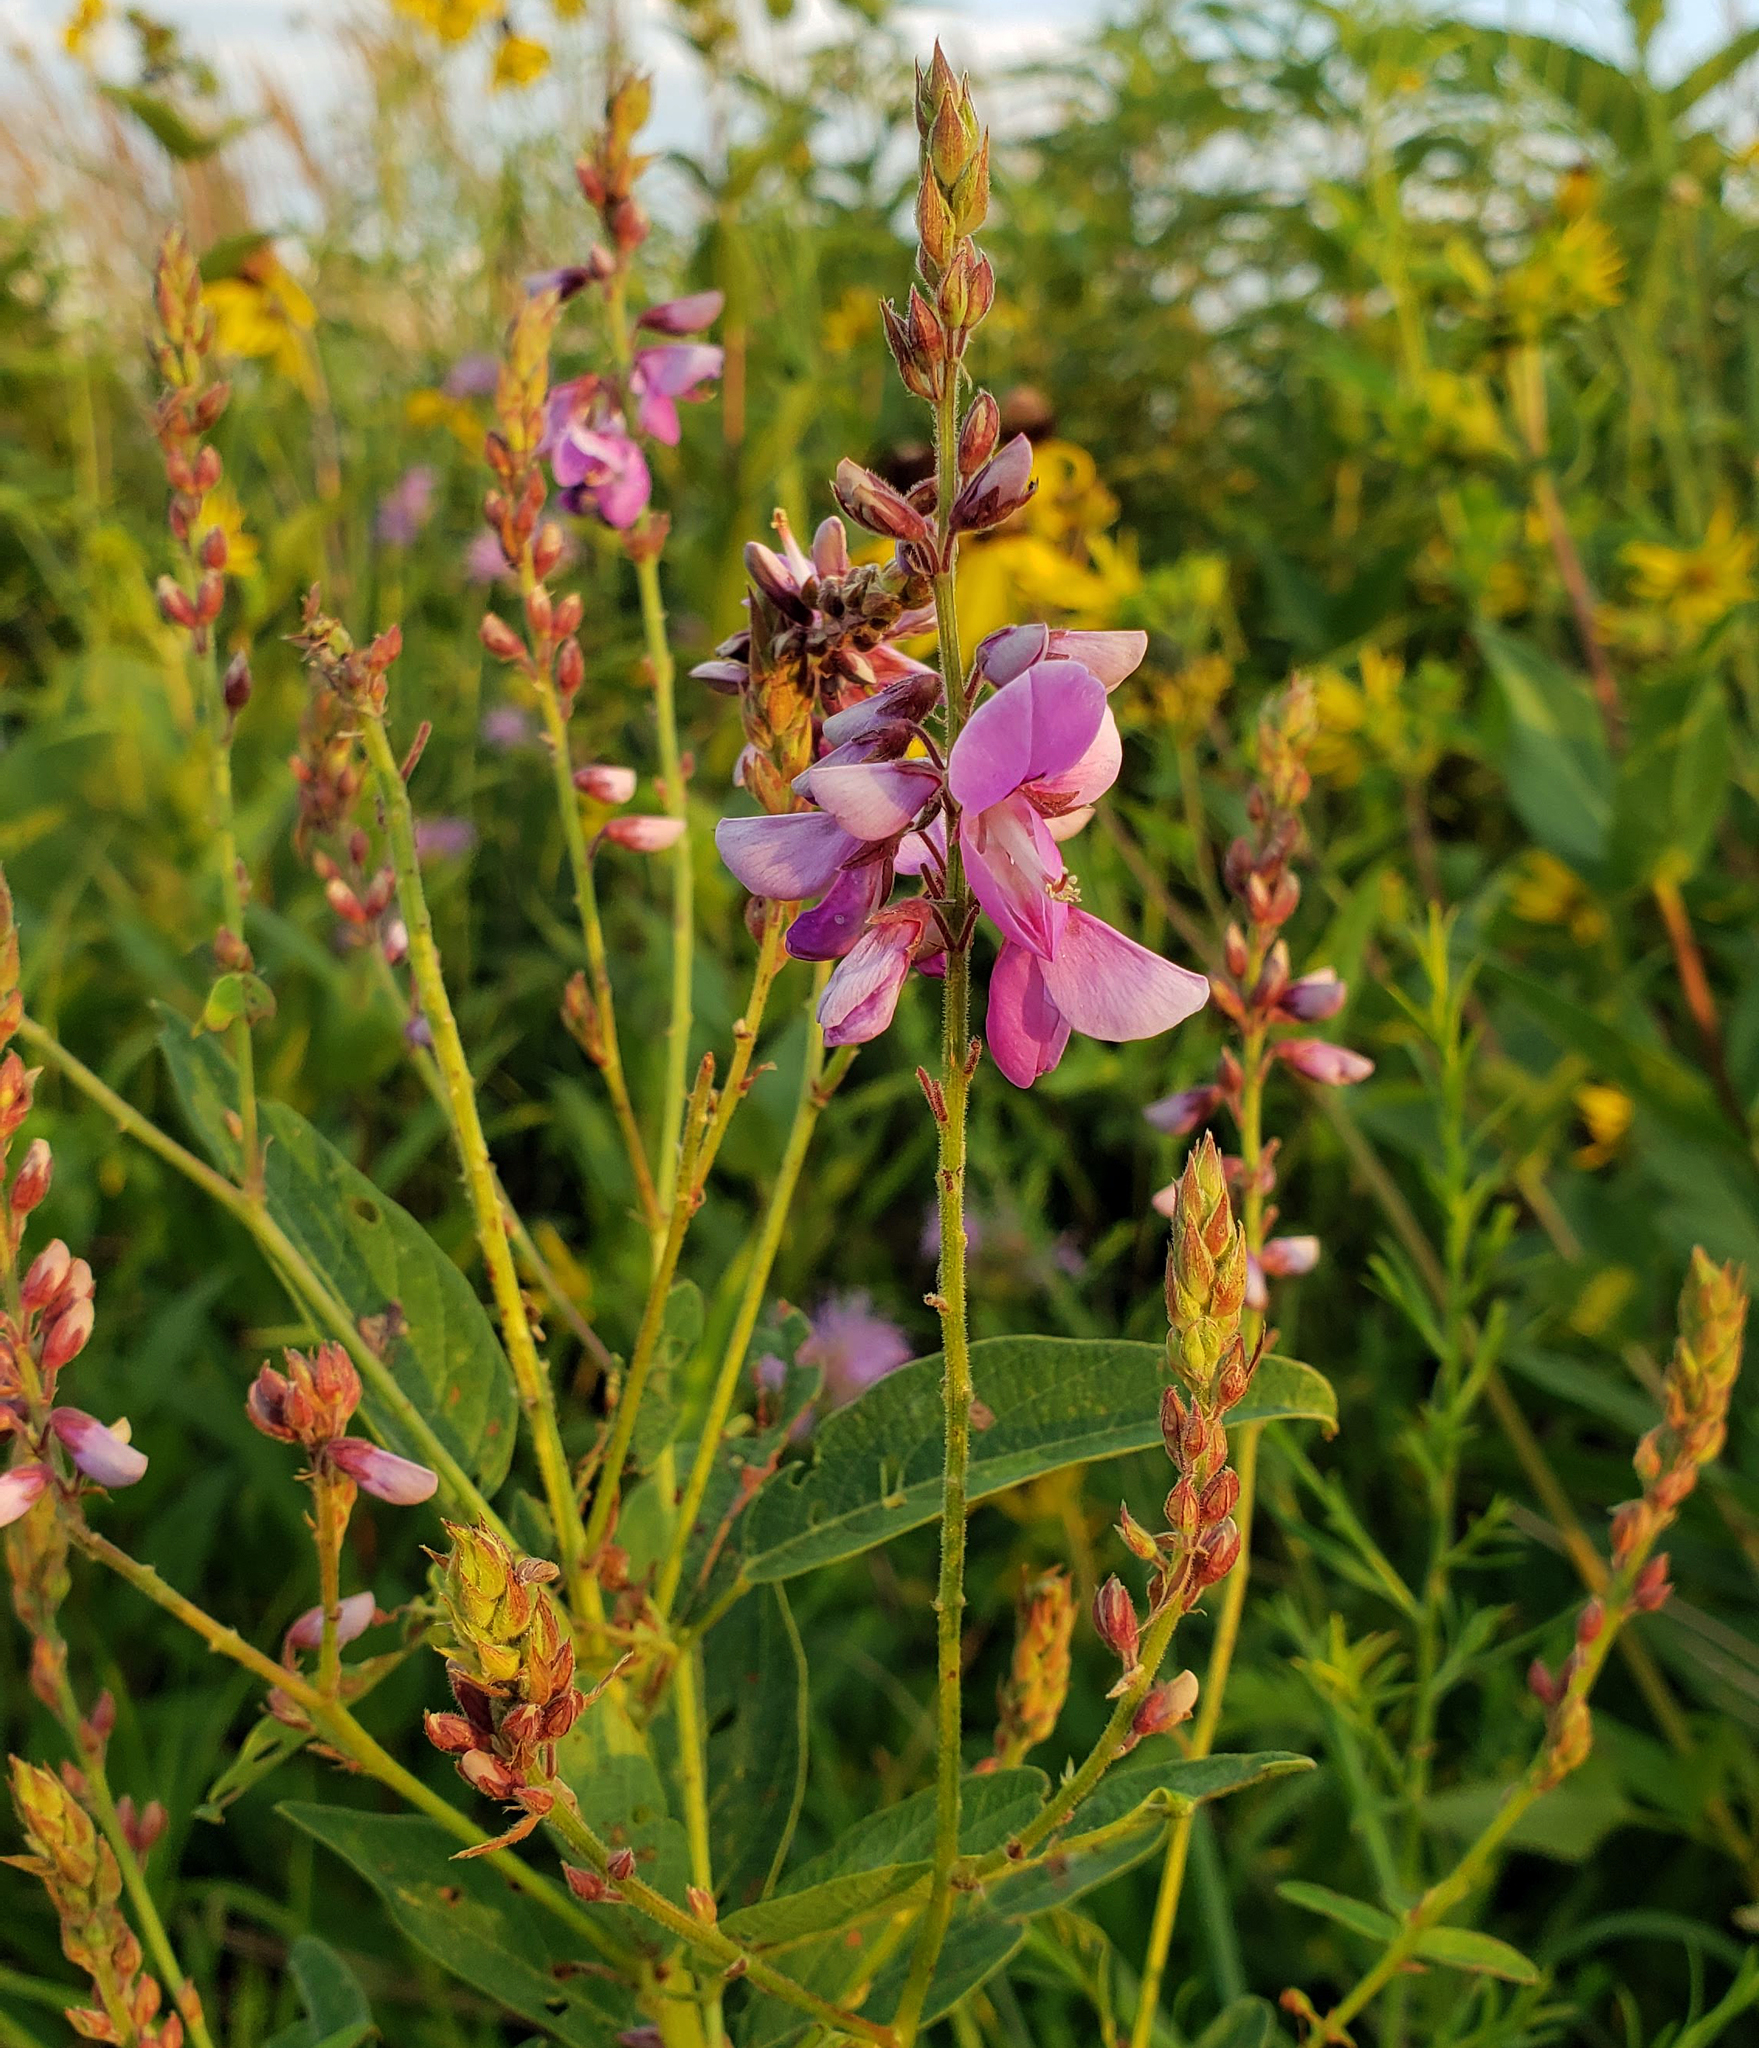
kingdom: Plantae
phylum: Tracheophyta
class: Magnoliopsida
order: Fabales
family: Fabaceae
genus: Desmodium
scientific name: Desmodium canadense
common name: Canada tick-trefoil
